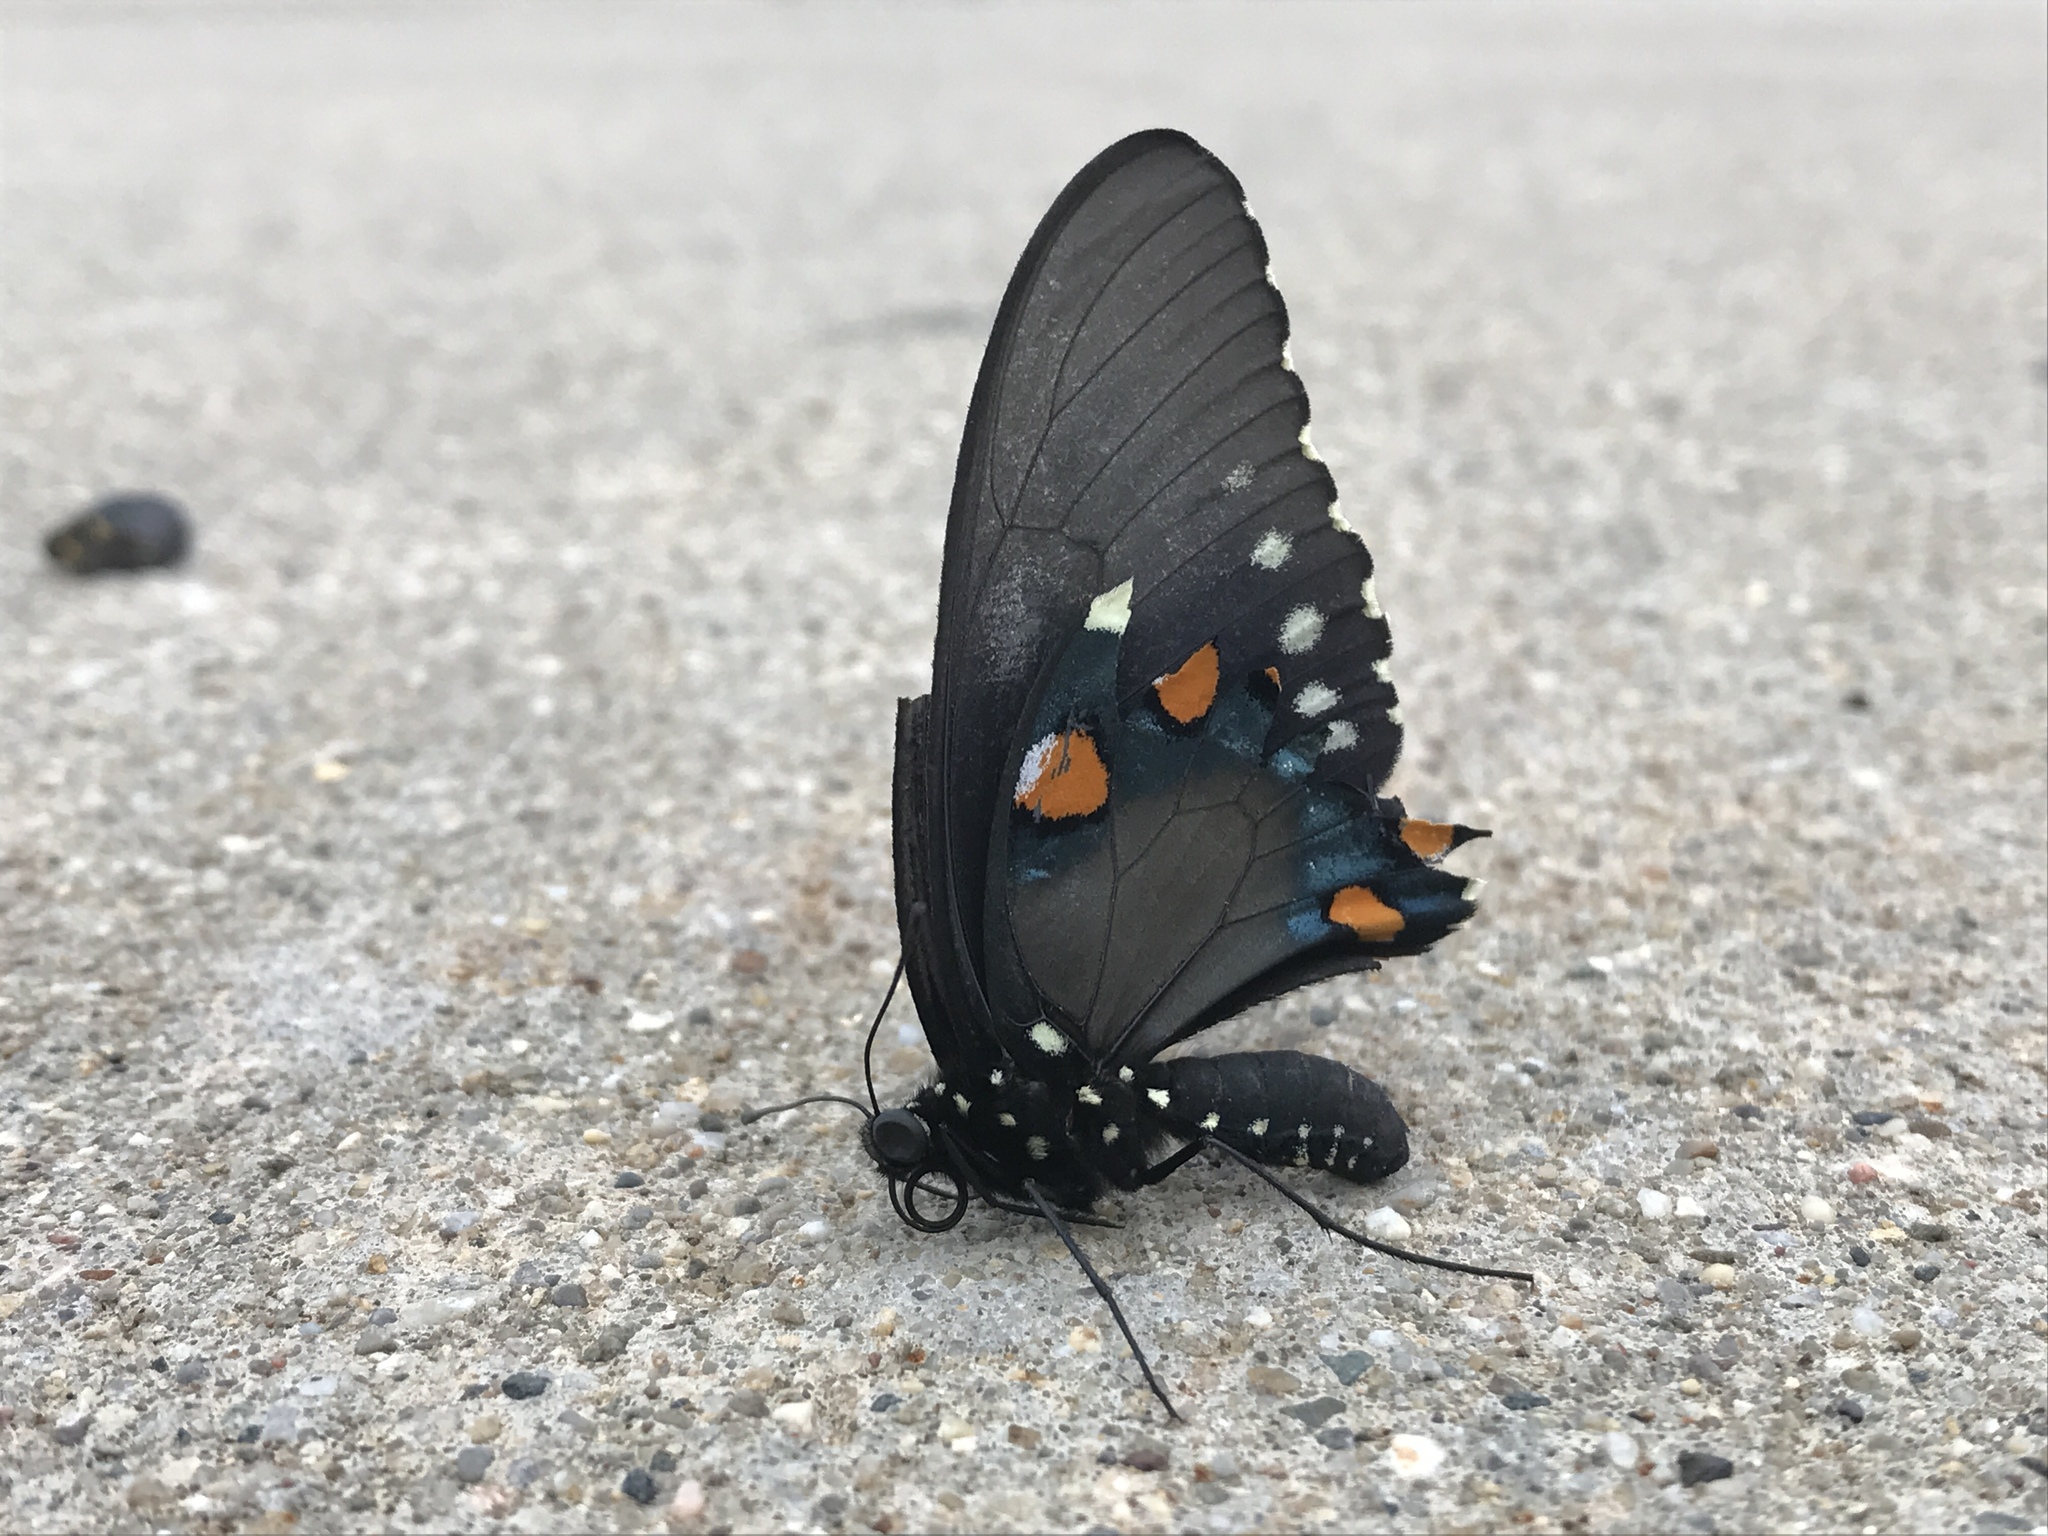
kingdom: Animalia
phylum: Arthropoda
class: Insecta
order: Lepidoptera
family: Papilionidae
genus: Battus
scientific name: Battus philenor
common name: Pipevine swallowtail
